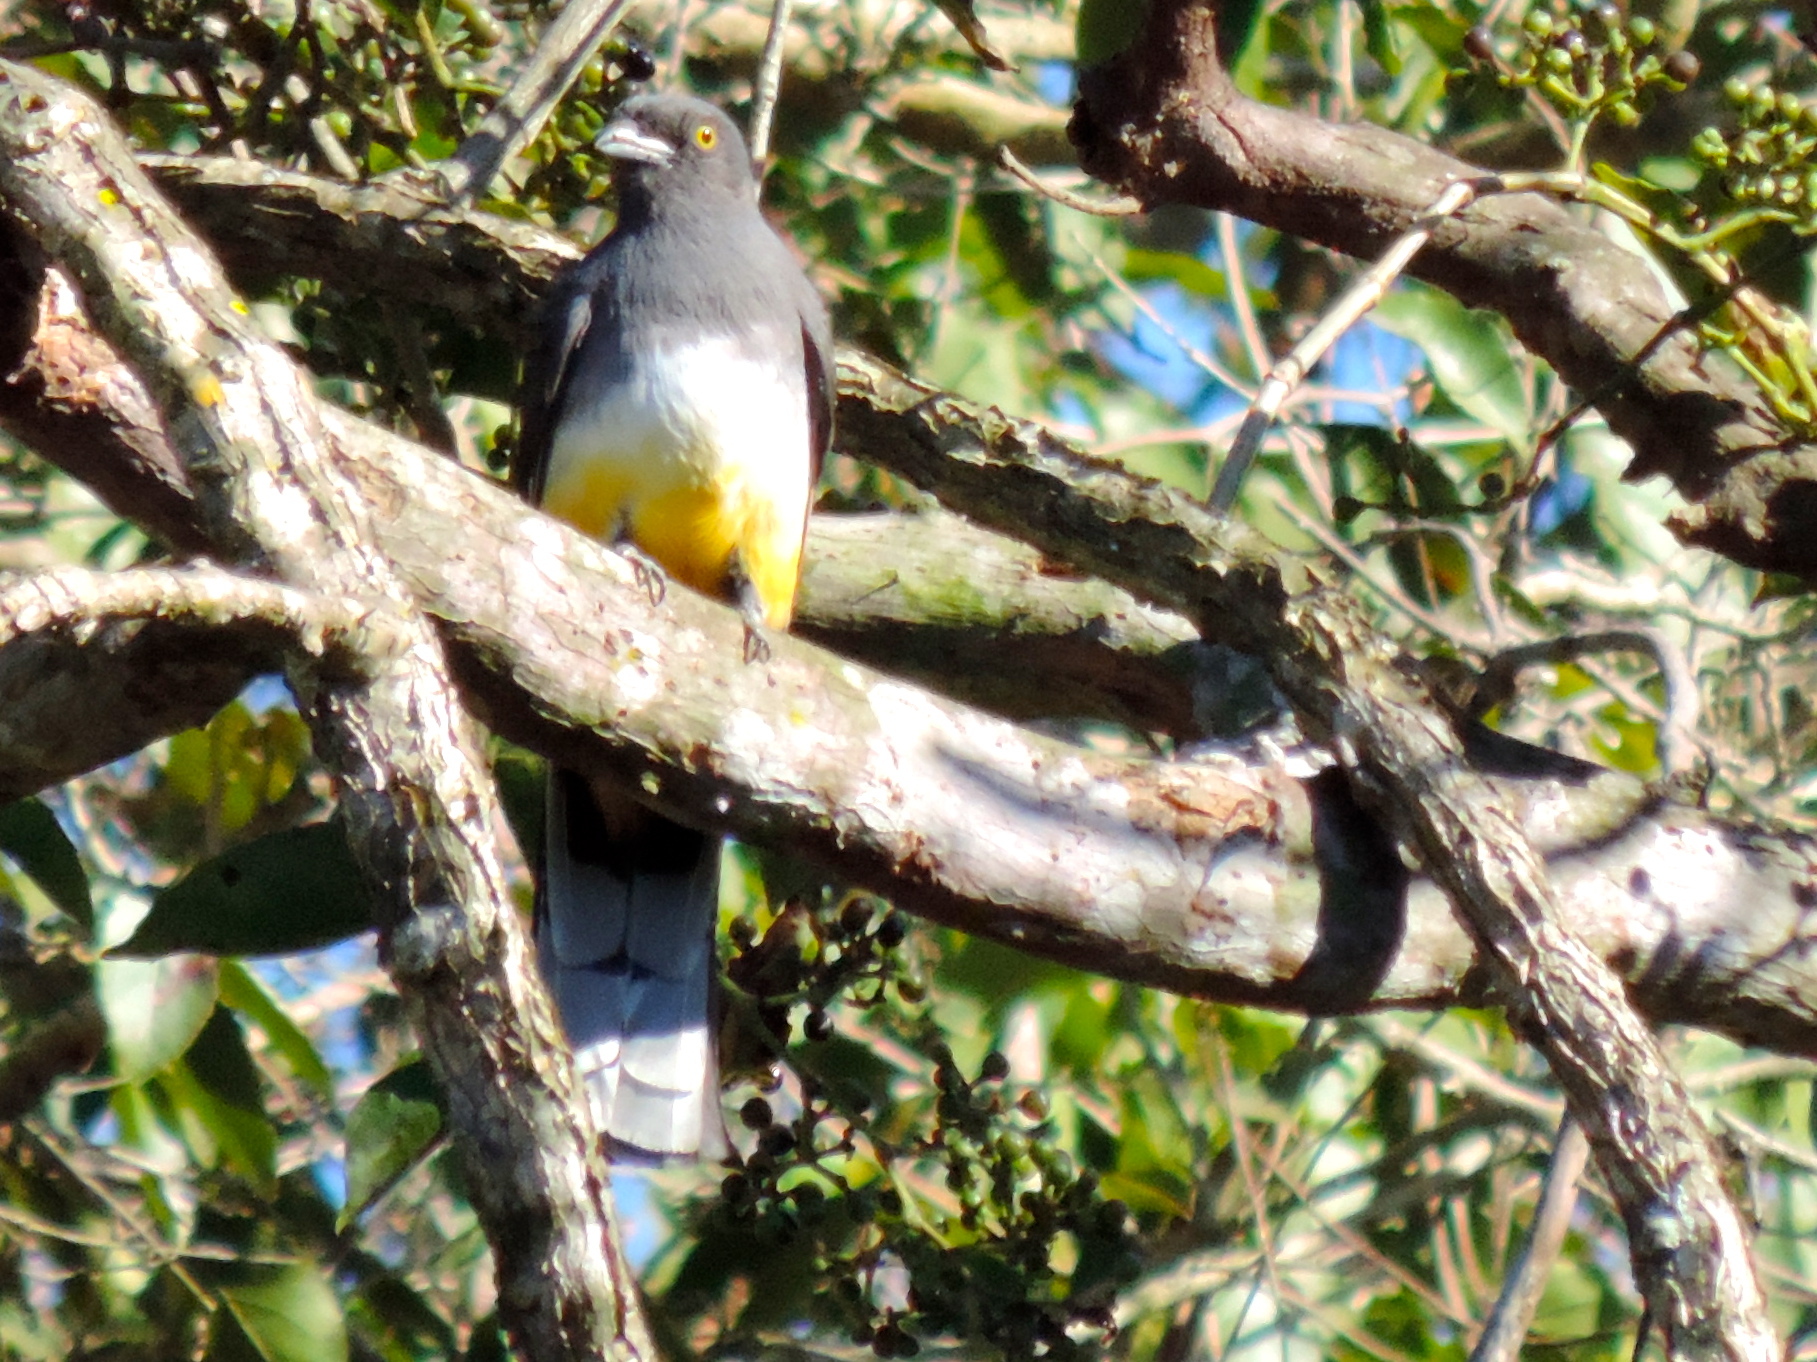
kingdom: Animalia
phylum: Chordata
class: Aves
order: Trogoniformes
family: Trogonidae
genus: Trogon
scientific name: Trogon citreolus
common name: Citreoline trogon
